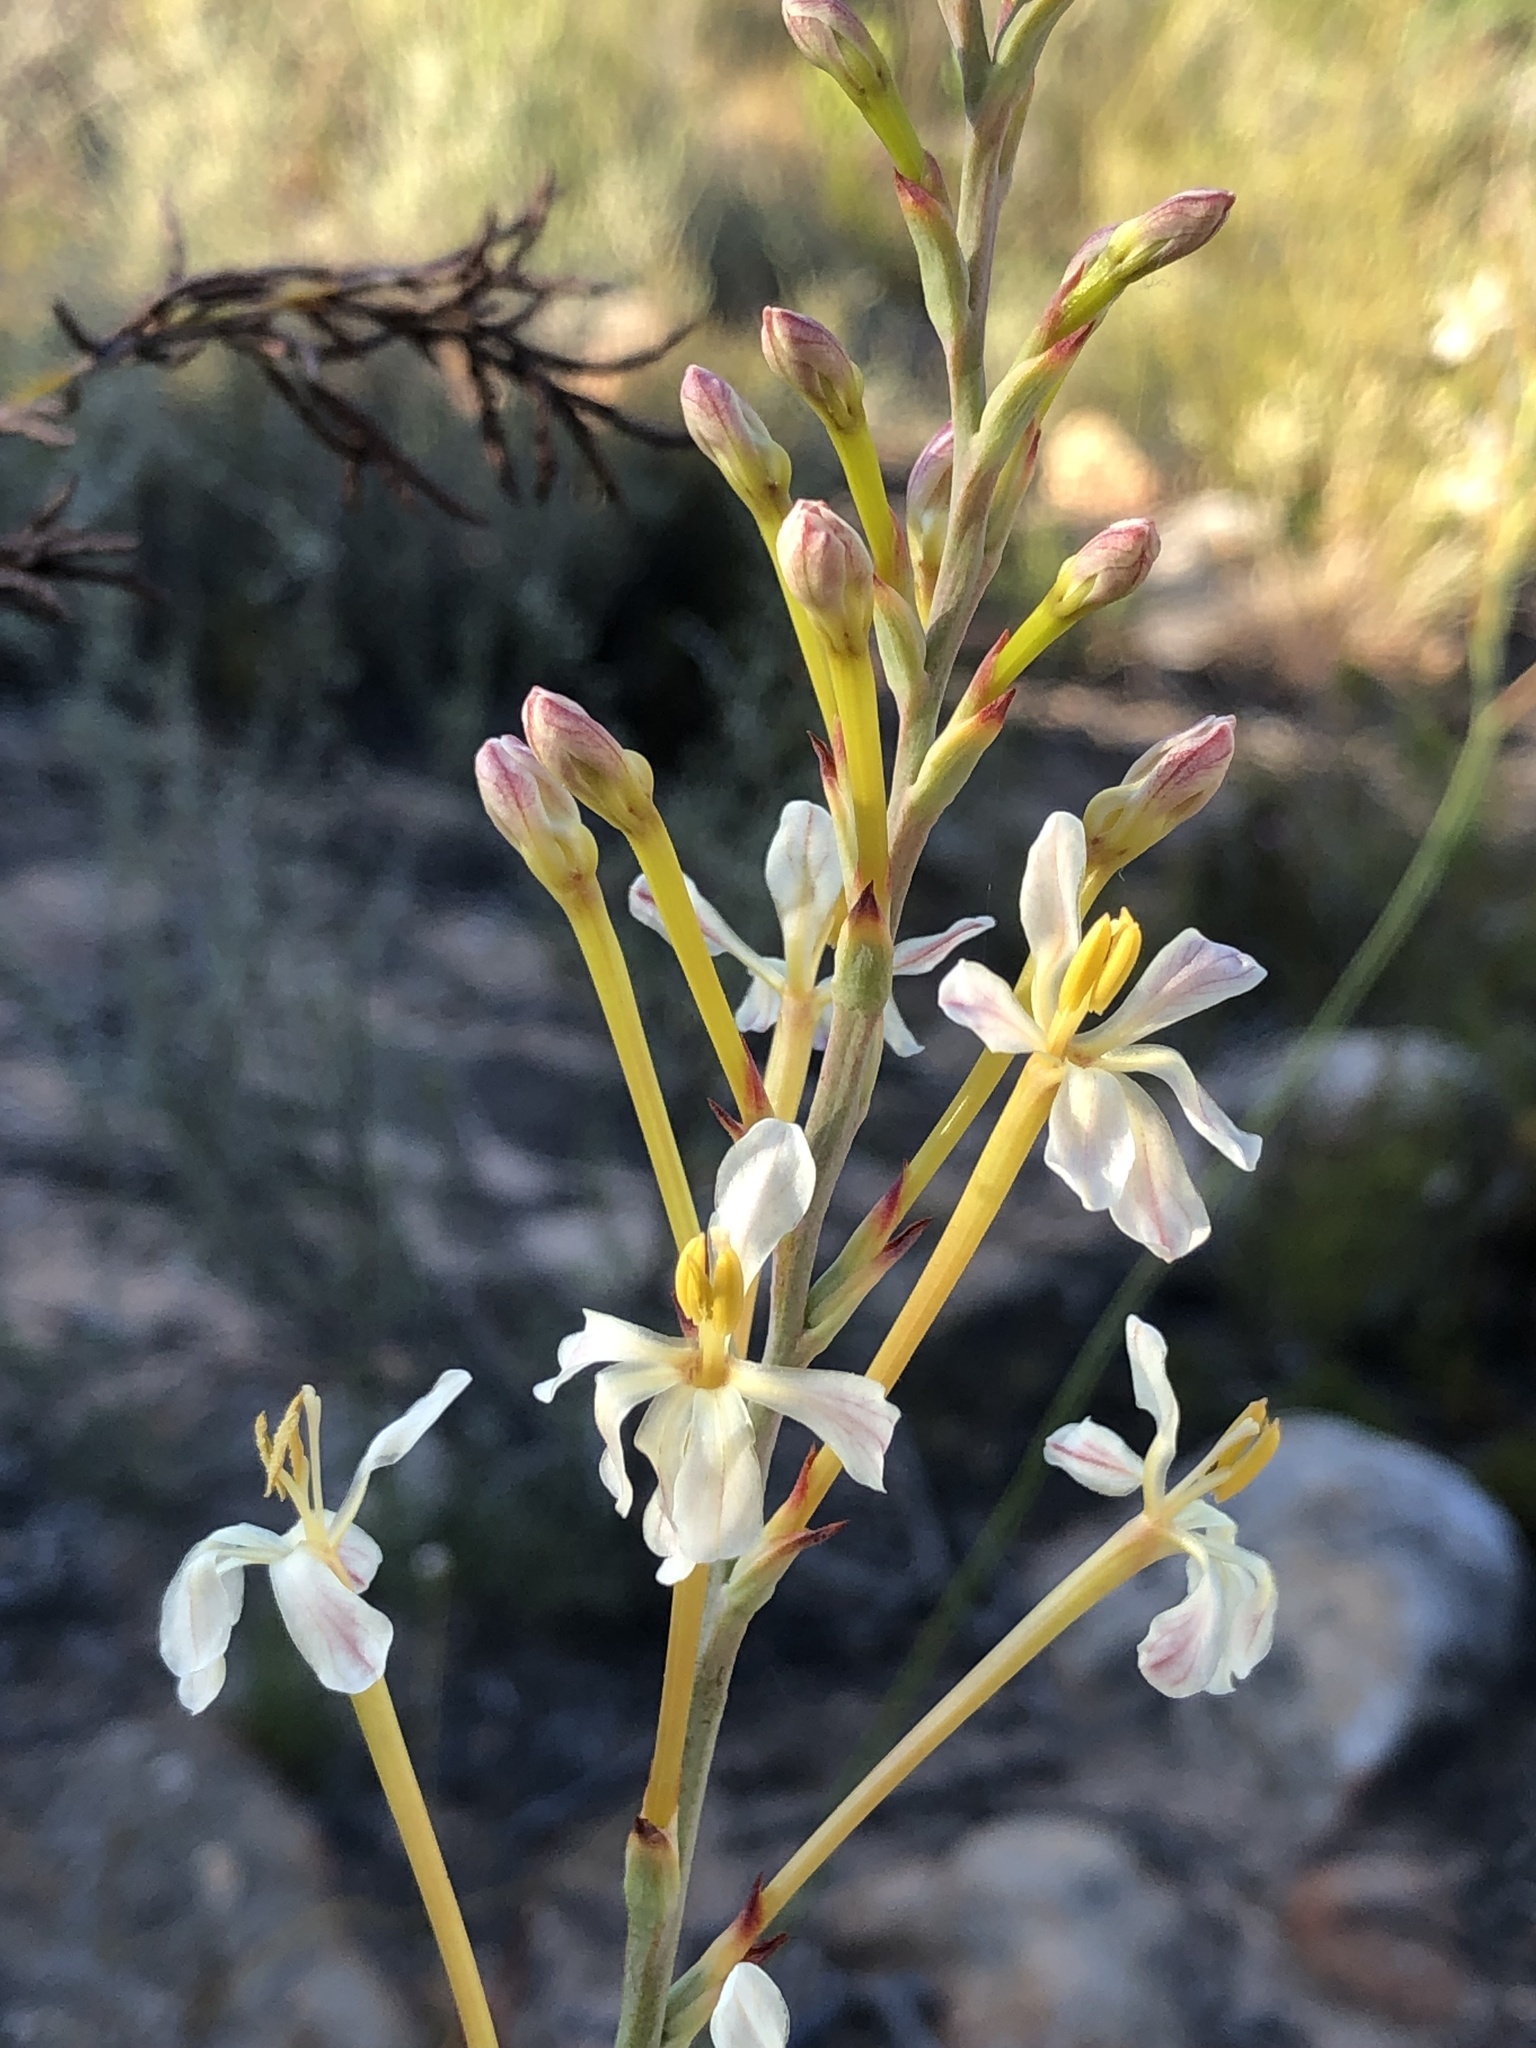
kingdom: Plantae
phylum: Tracheophyta
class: Liliopsida
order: Asparagales
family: Iridaceae
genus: Tritoniopsis
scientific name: Tritoniopsis nervosa
